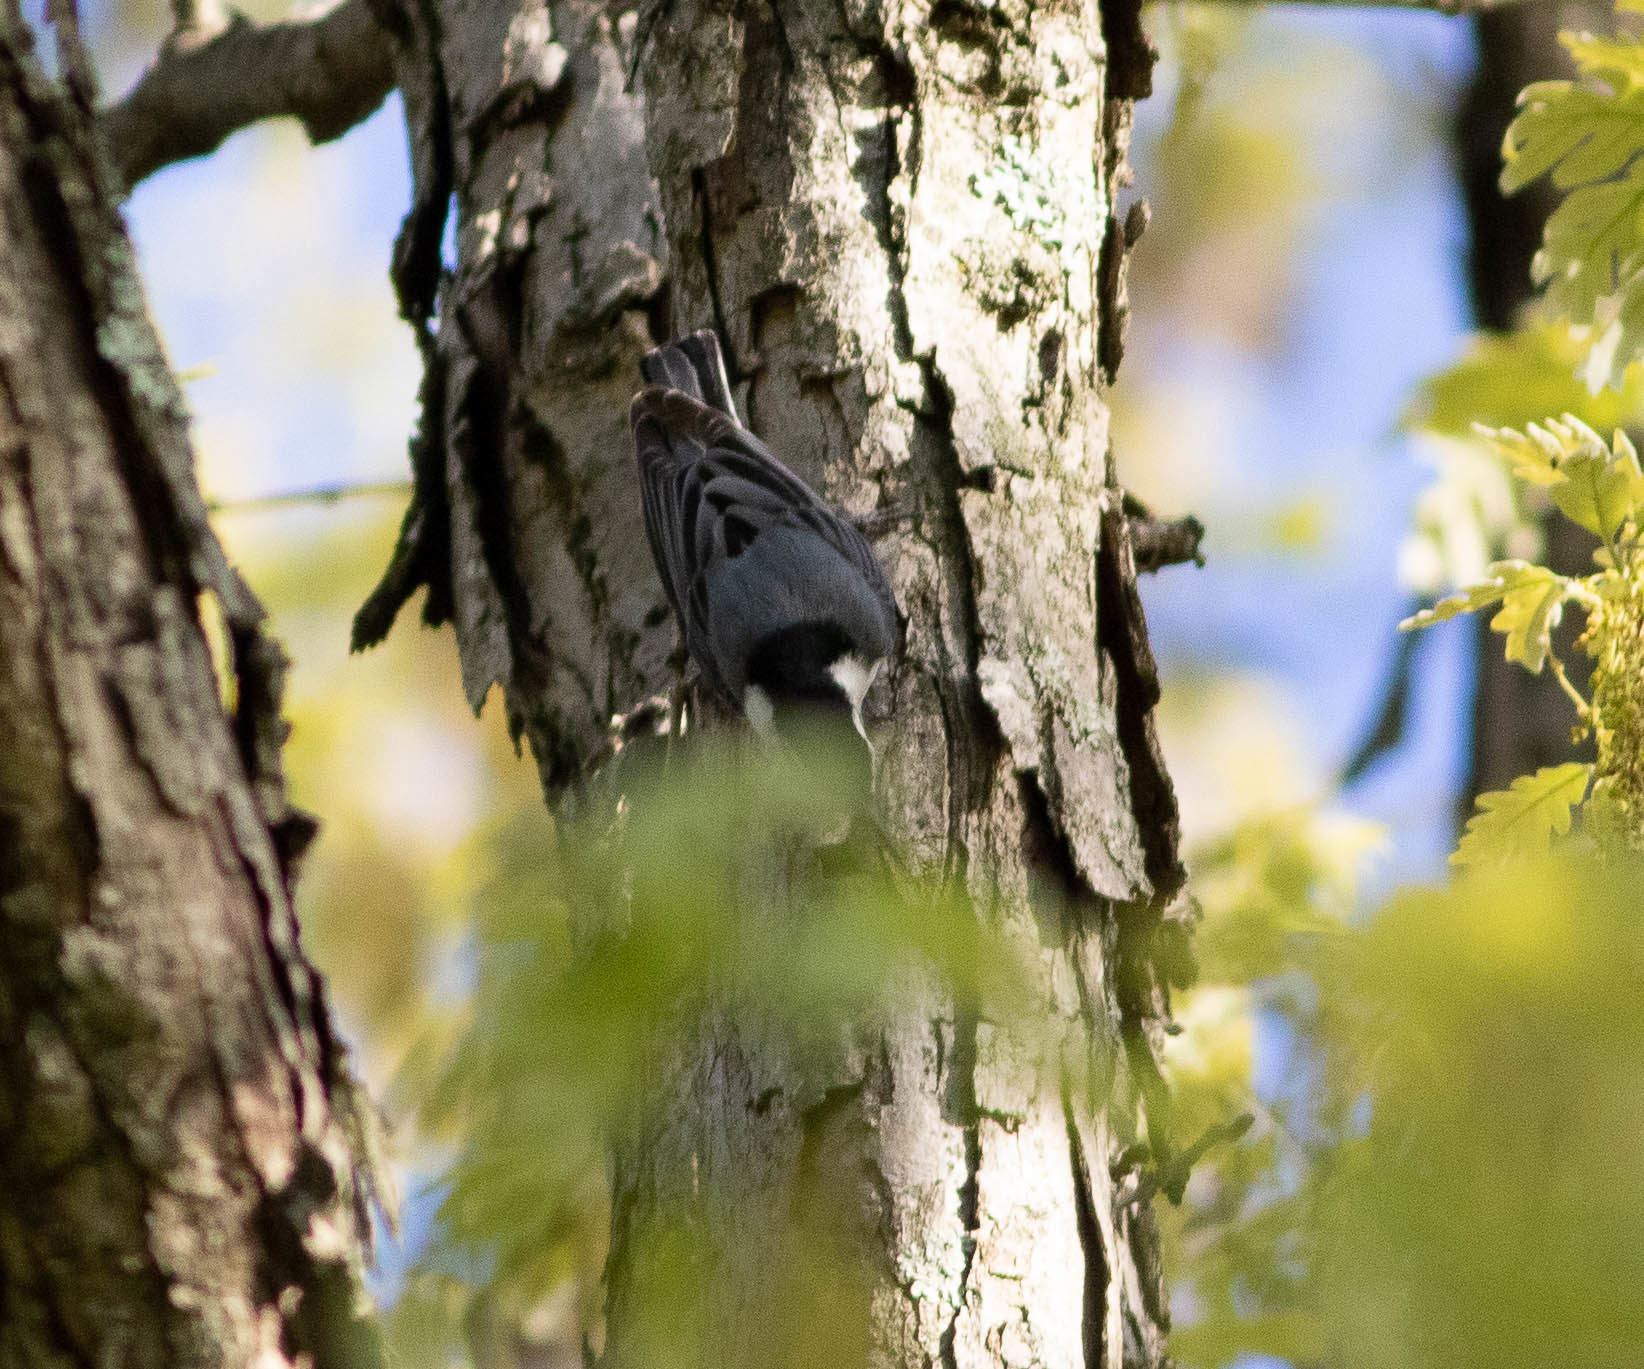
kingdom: Animalia
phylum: Chordata
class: Aves
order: Passeriformes
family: Sittidae
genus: Sitta
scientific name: Sitta carolinensis
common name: White-breasted nuthatch
